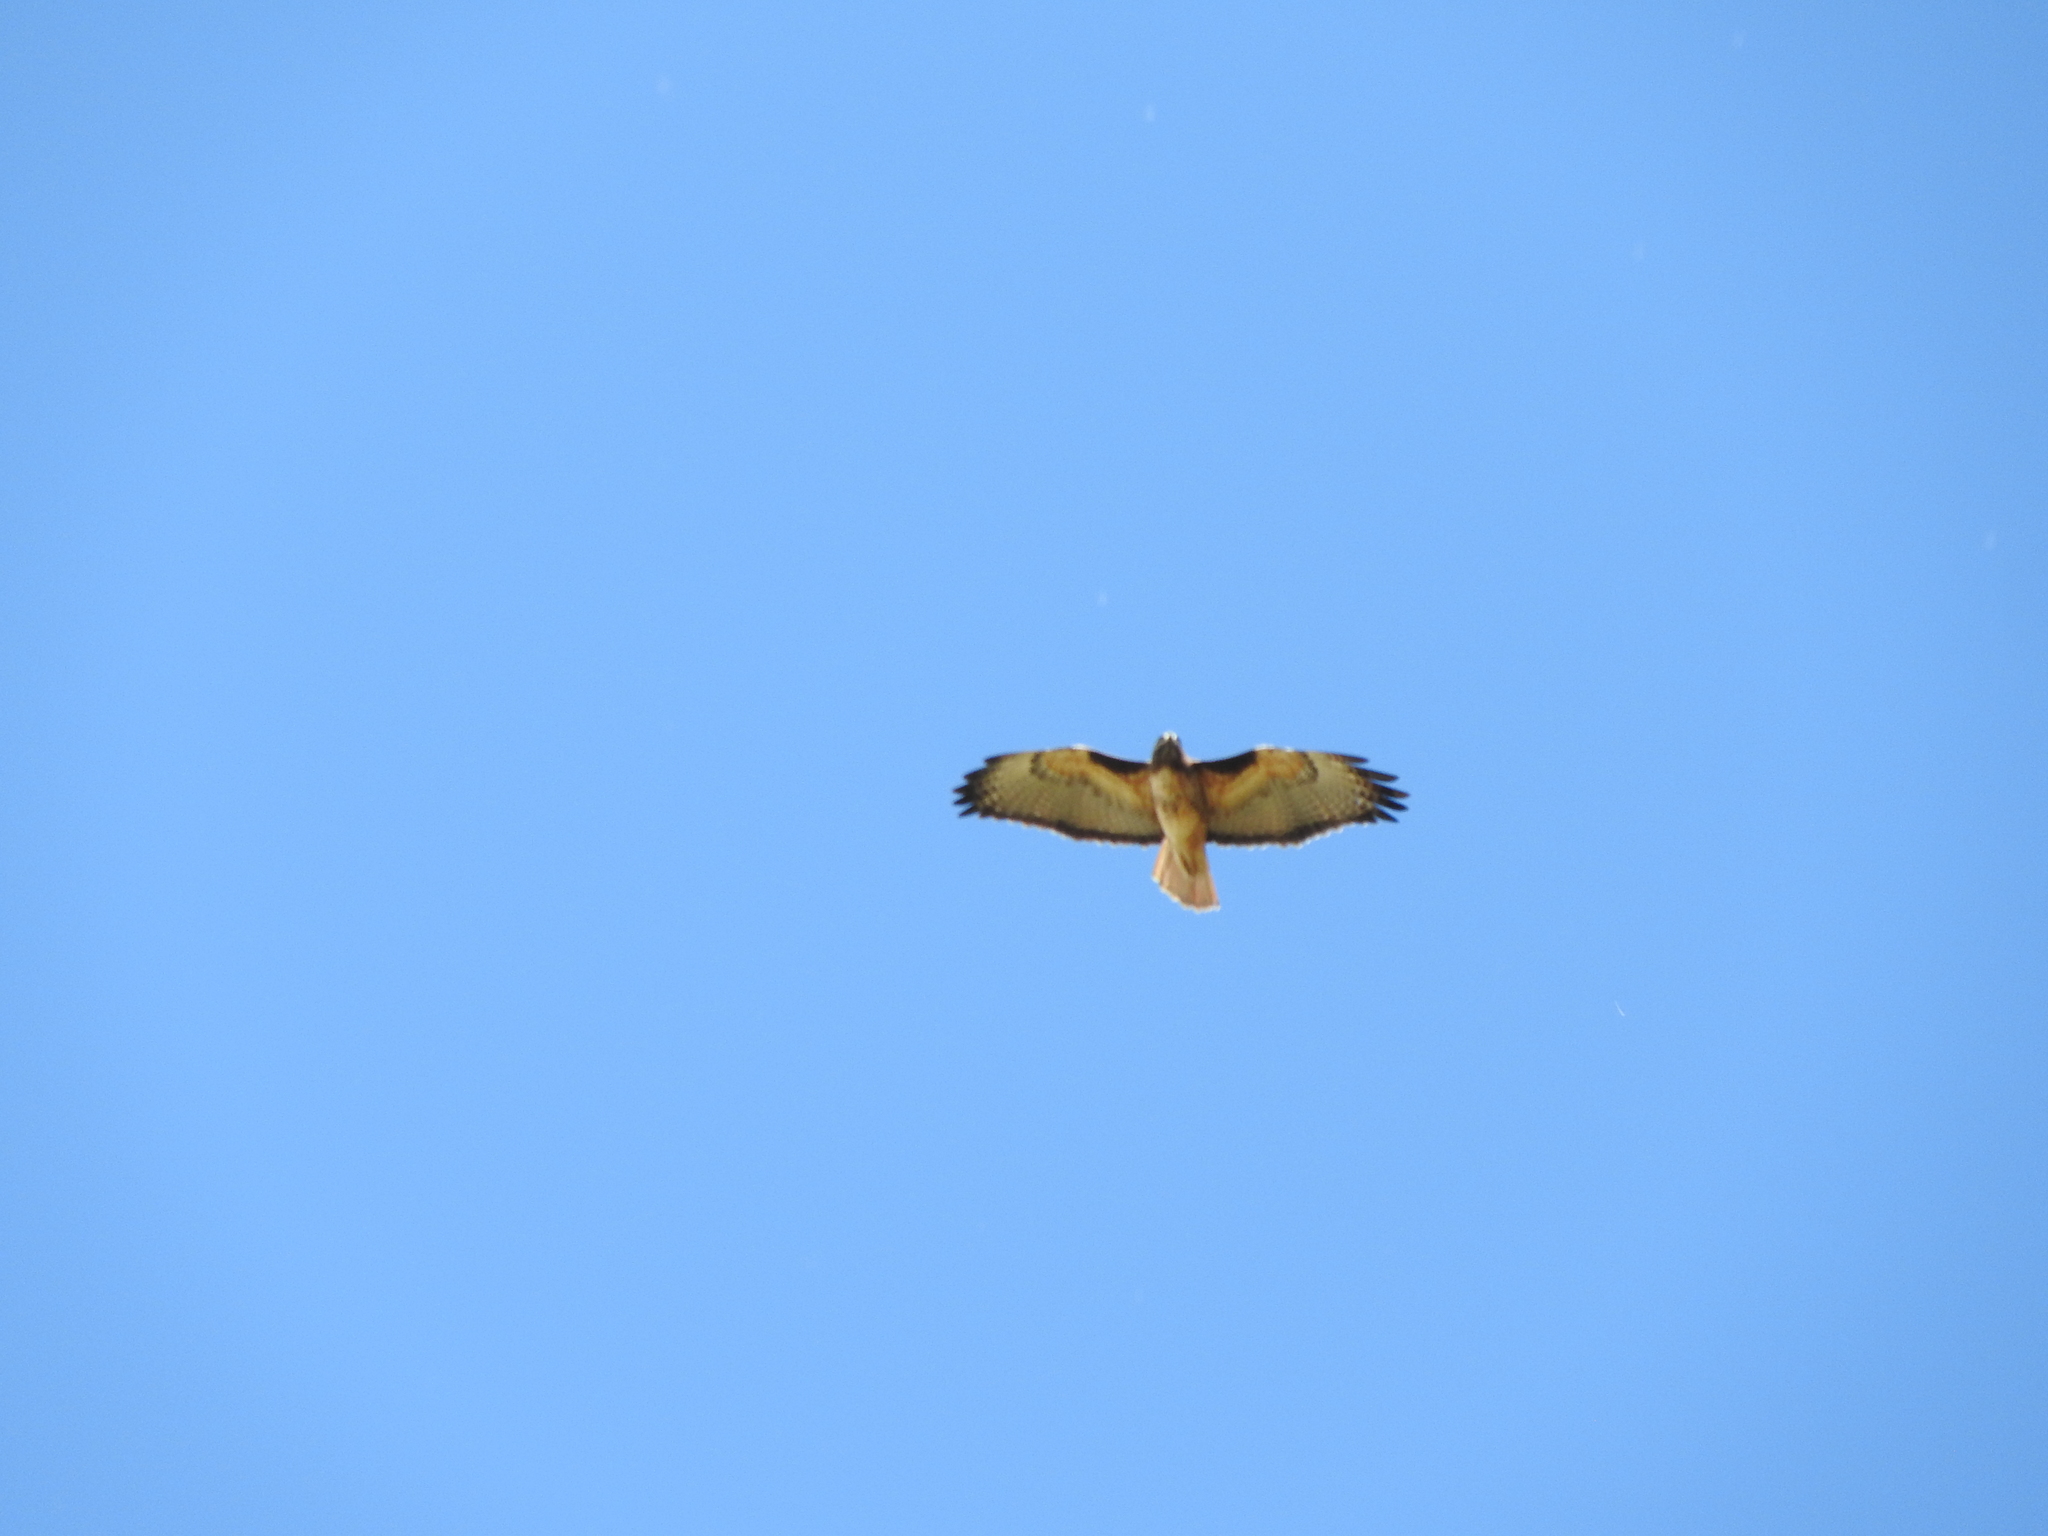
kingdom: Animalia
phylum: Chordata
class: Aves
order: Accipitriformes
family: Accipitridae
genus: Buteo
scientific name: Buteo jamaicensis
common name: Red-tailed hawk
